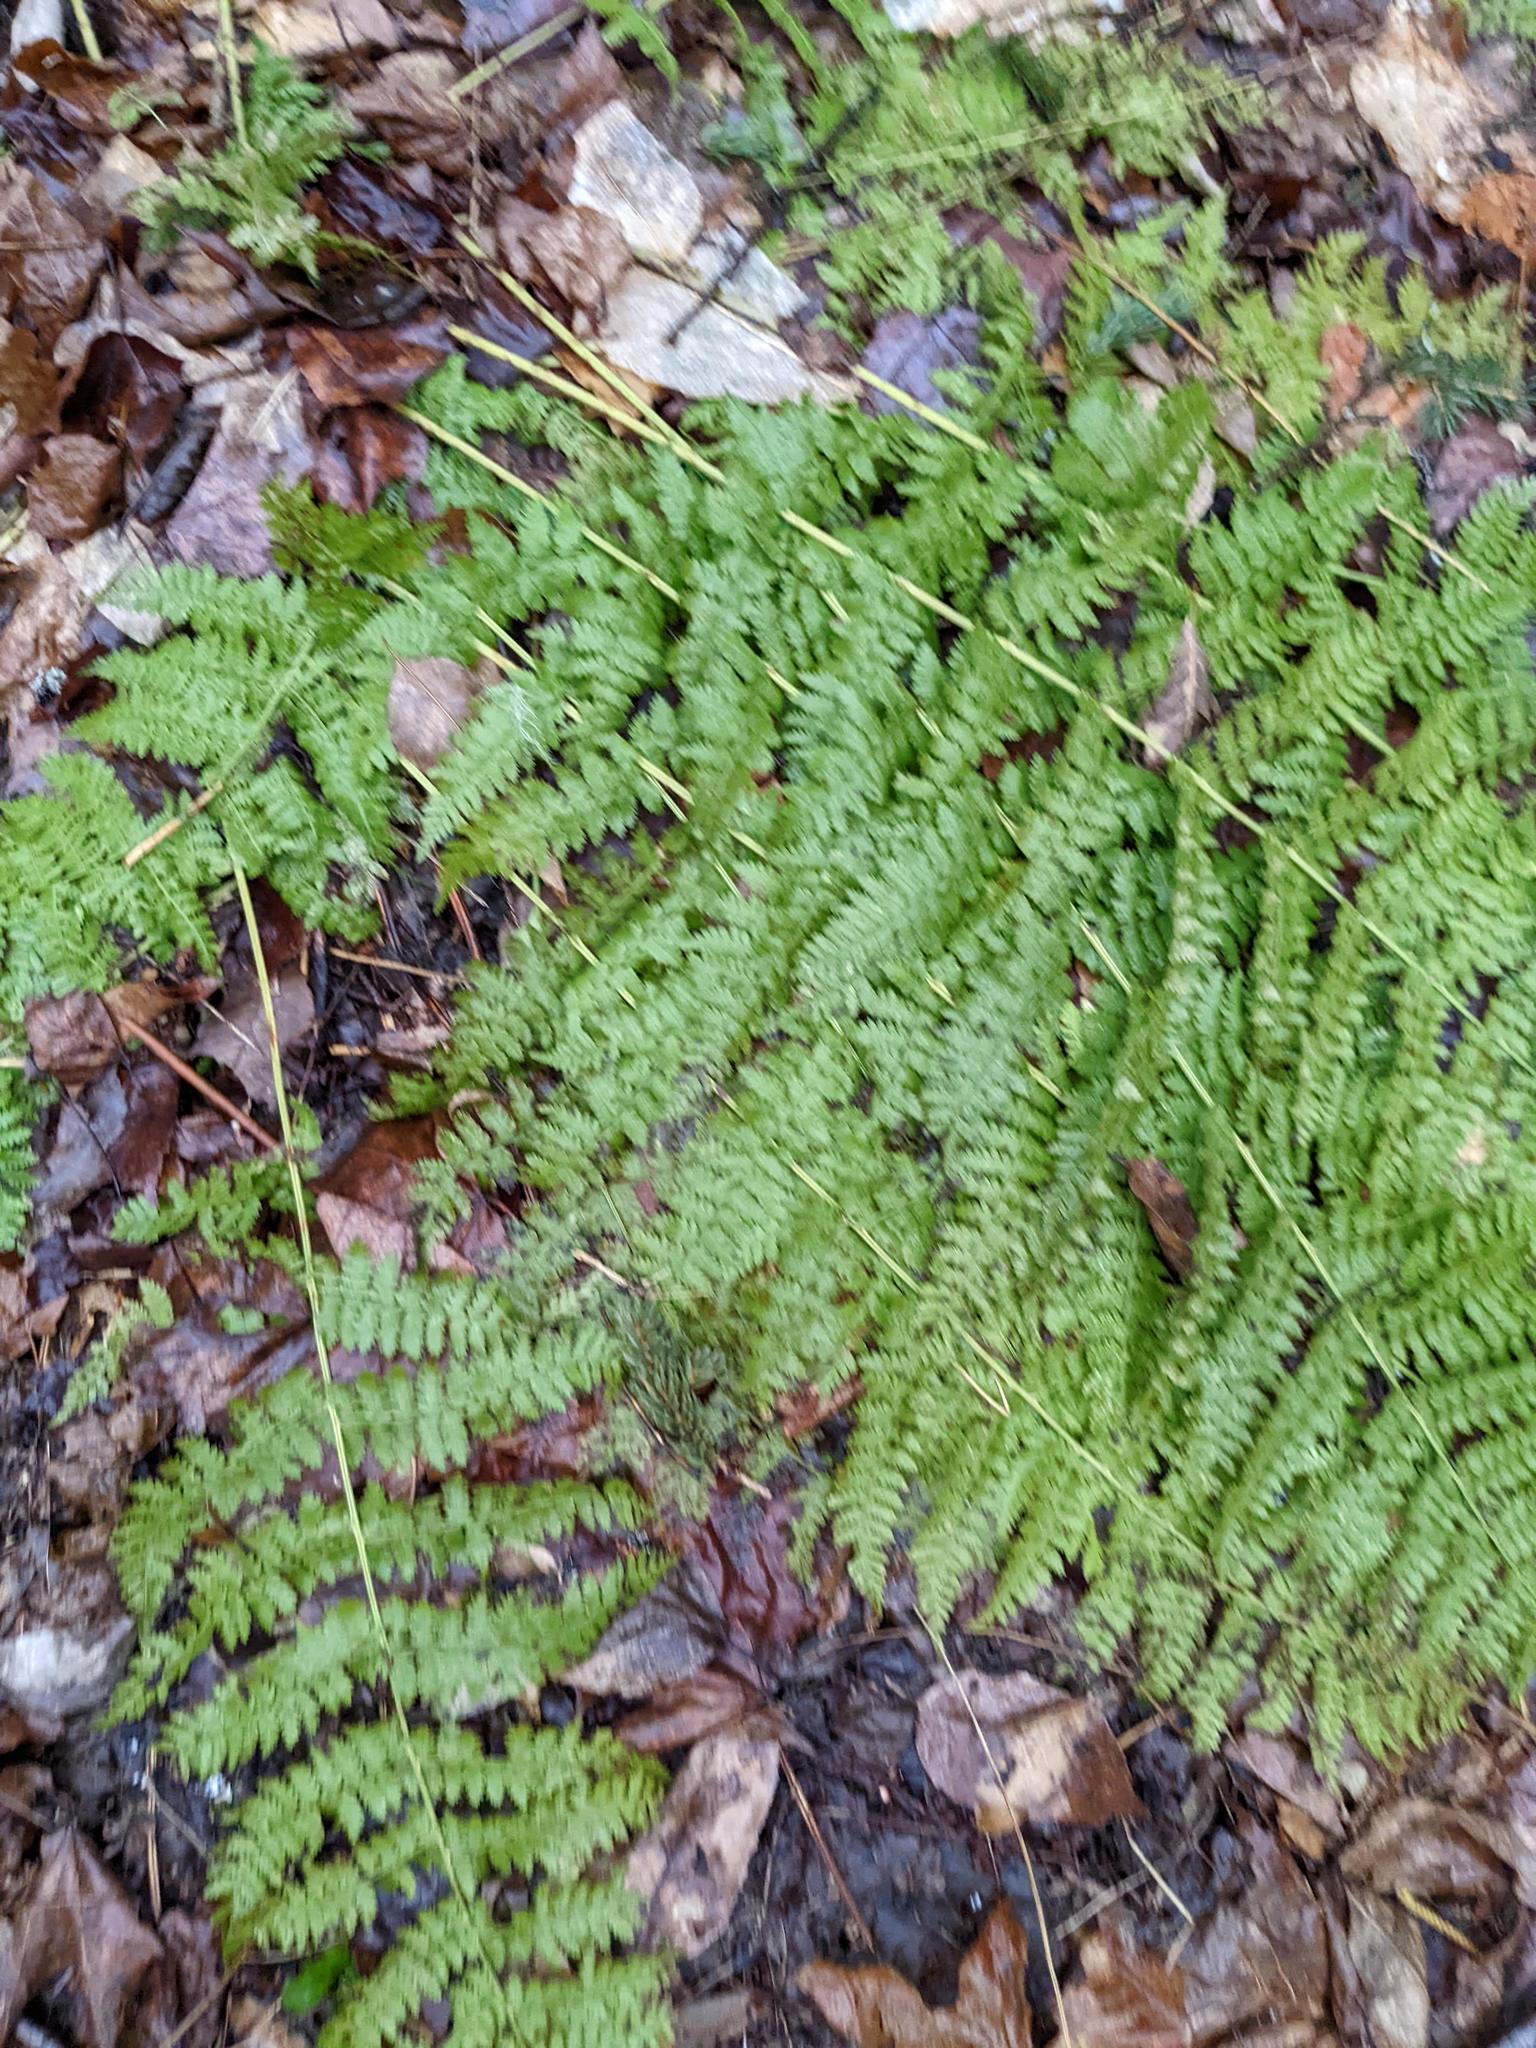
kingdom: Plantae
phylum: Tracheophyta
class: Polypodiopsida
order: Polypodiales
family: Dryopteridaceae
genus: Dryopteris
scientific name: Dryopteris intermedia
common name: Evergreen wood fern
